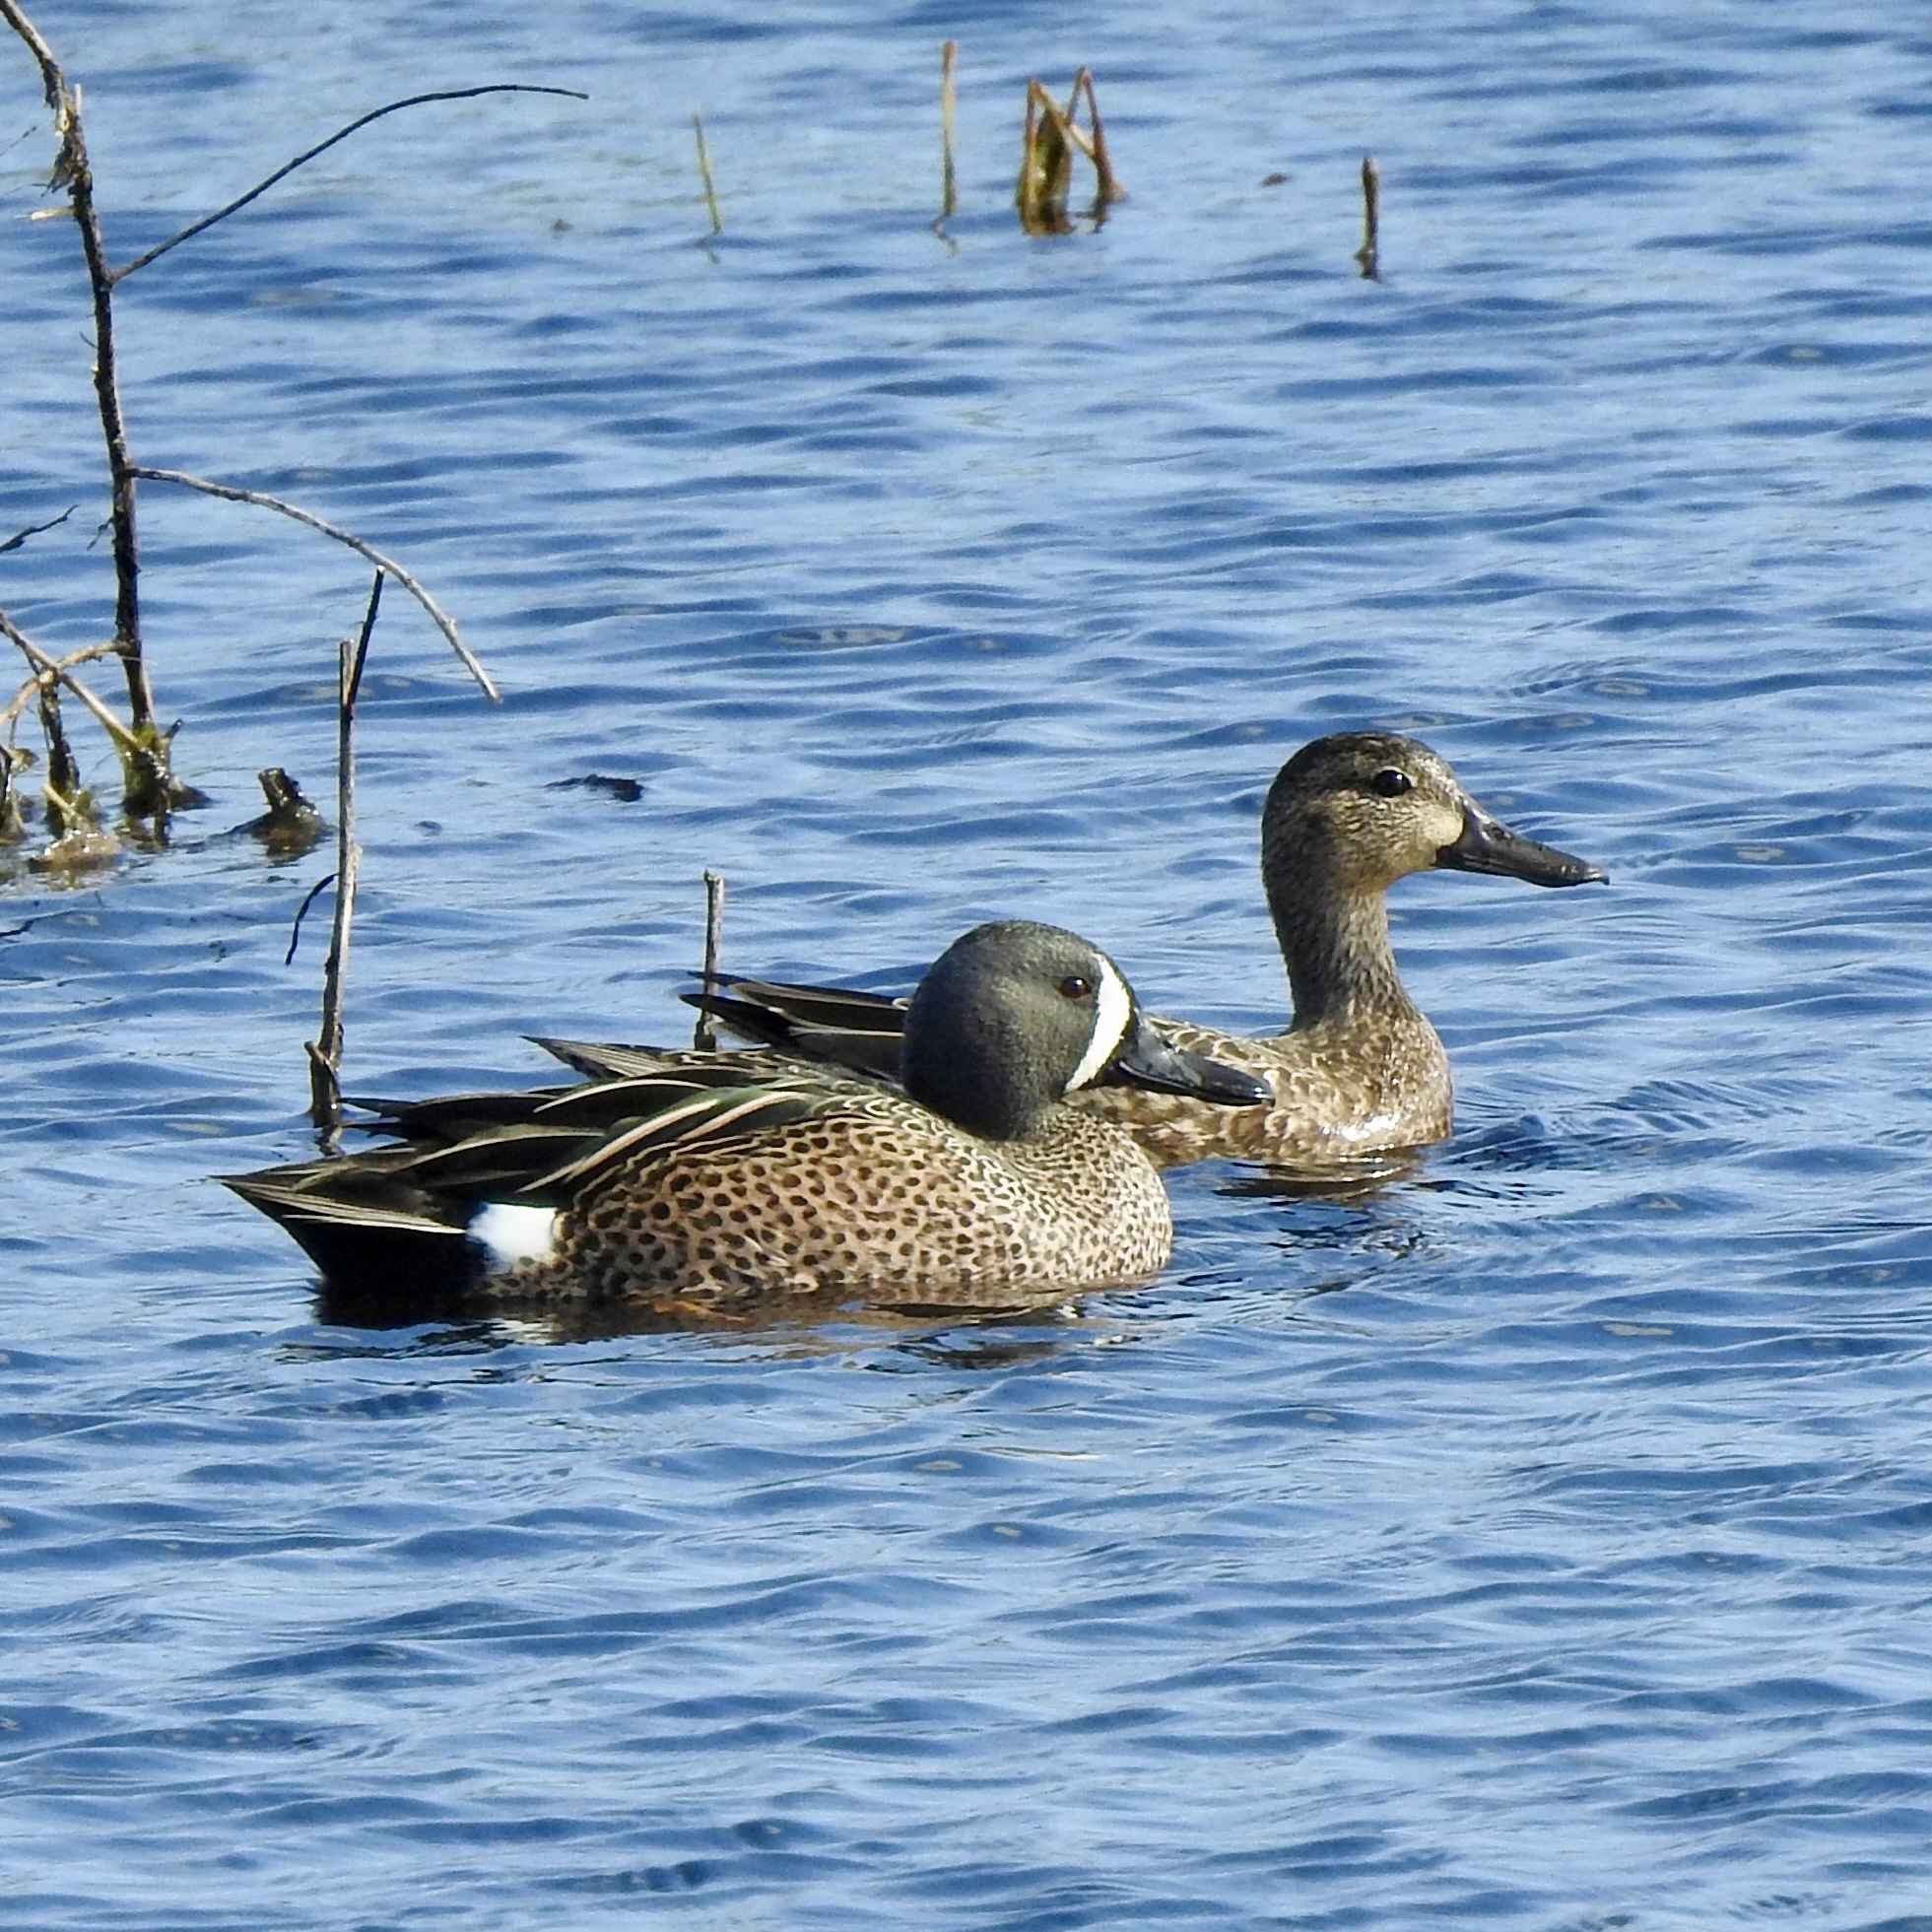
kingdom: Animalia
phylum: Chordata
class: Aves
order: Anseriformes
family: Anatidae
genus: Spatula
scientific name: Spatula discors
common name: Blue-winged teal
